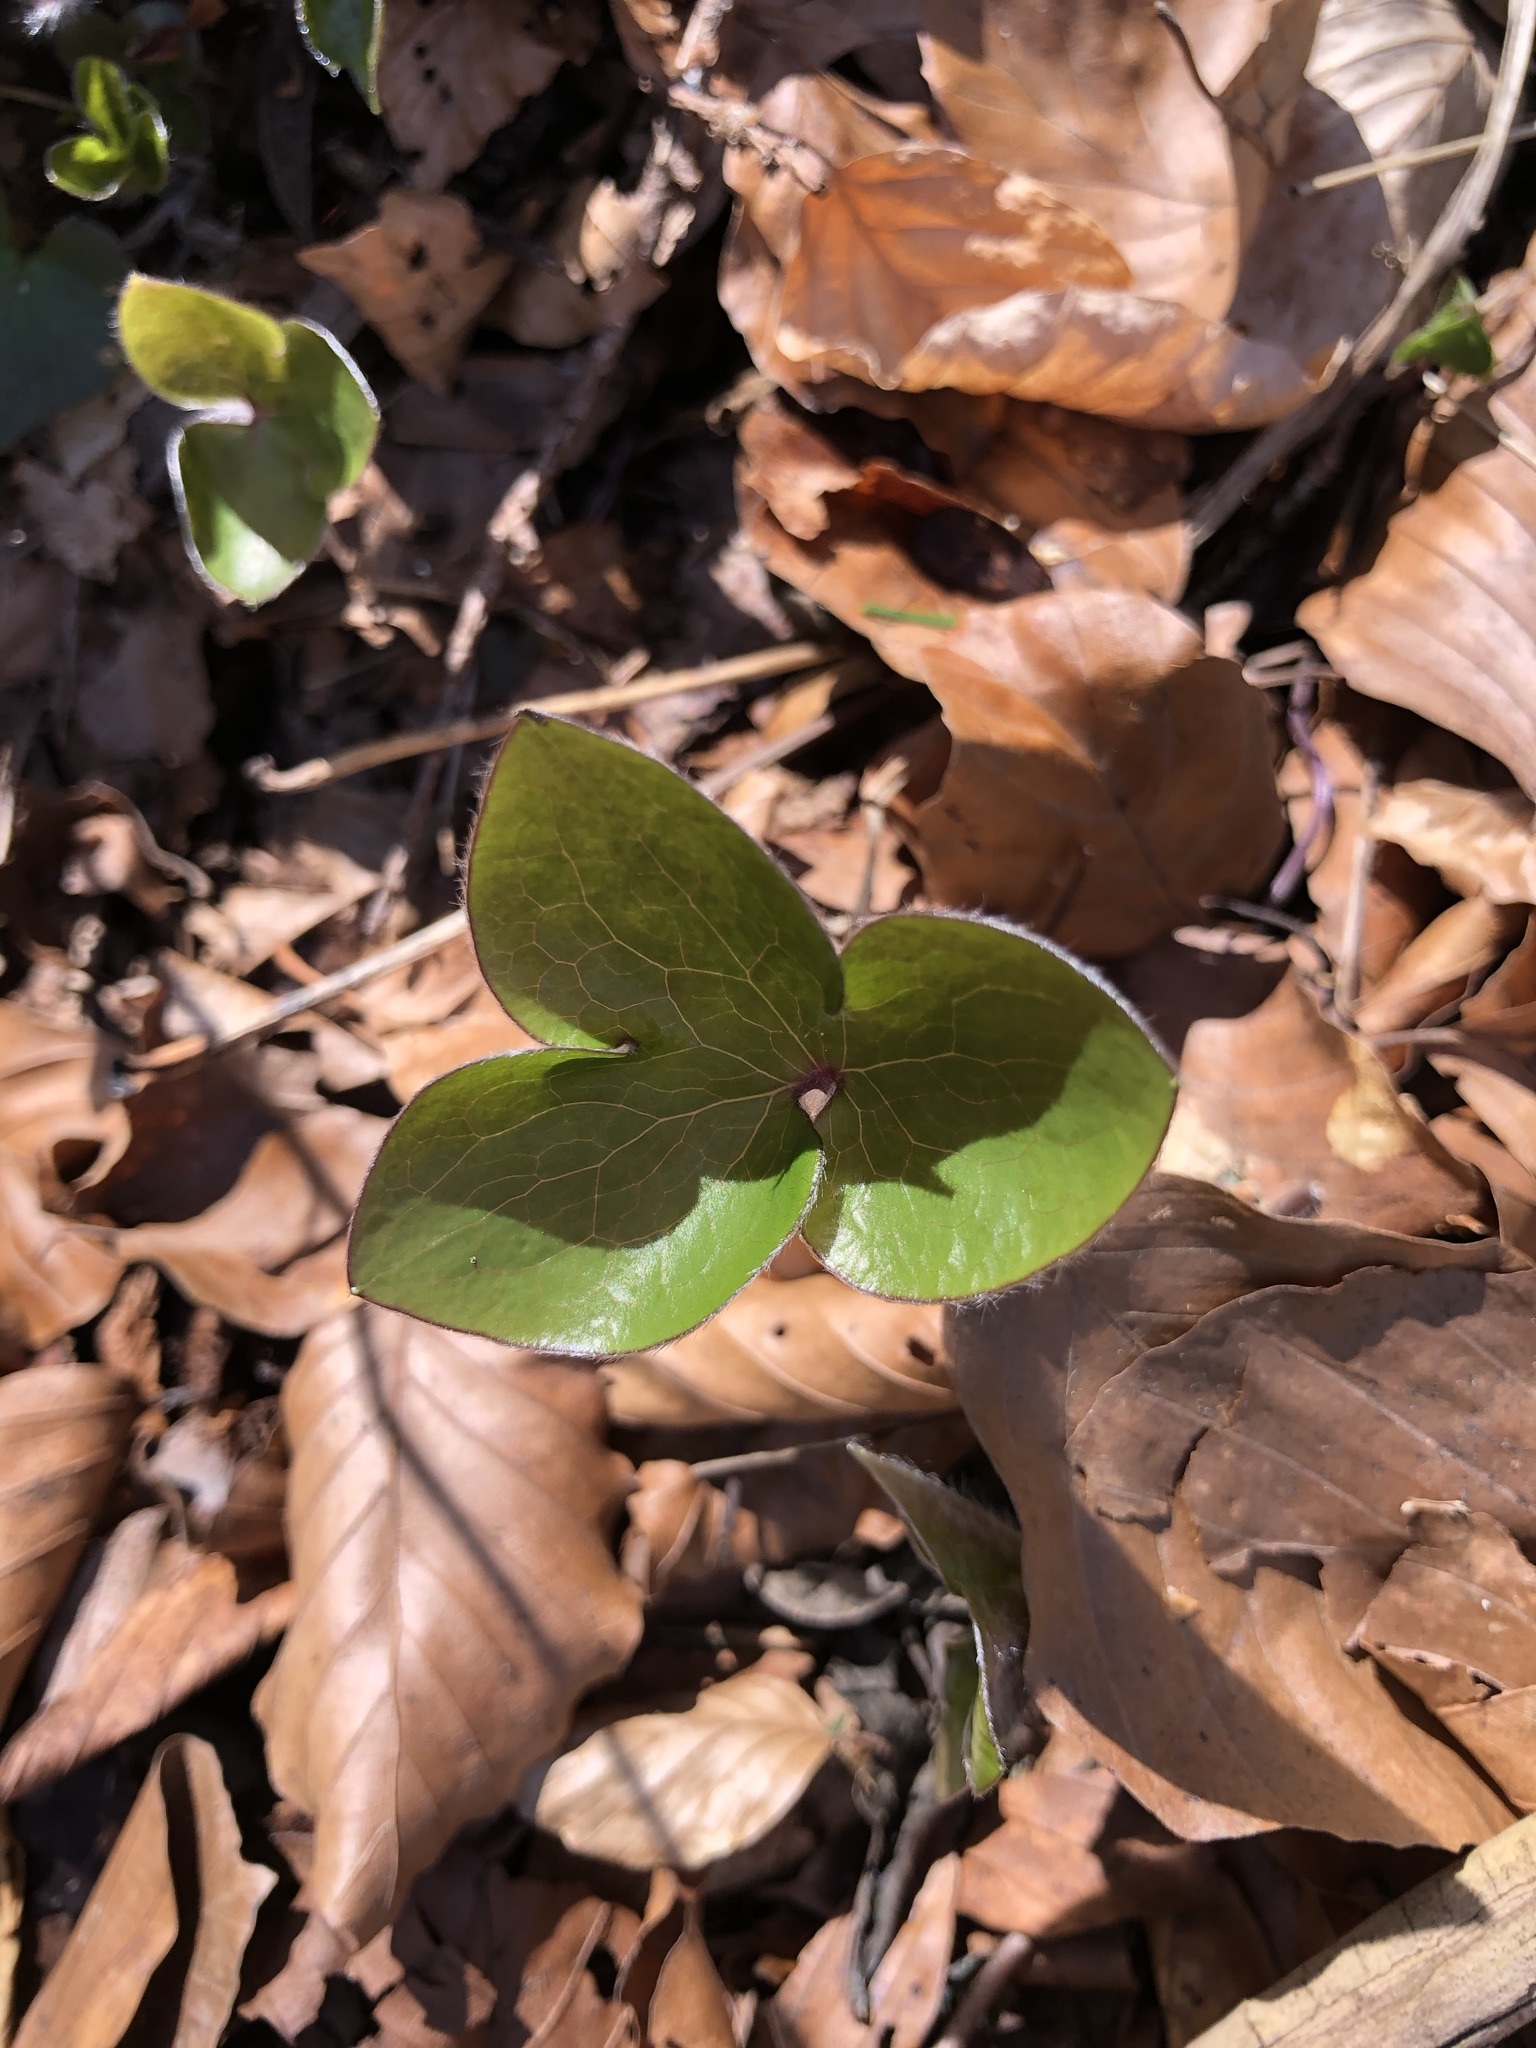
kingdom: Plantae
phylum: Tracheophyta
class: Magnoliopsida
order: Ranunculales
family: Ranunculaceae
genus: Hepatica
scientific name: Hepatica nobilis
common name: Liverleaf
